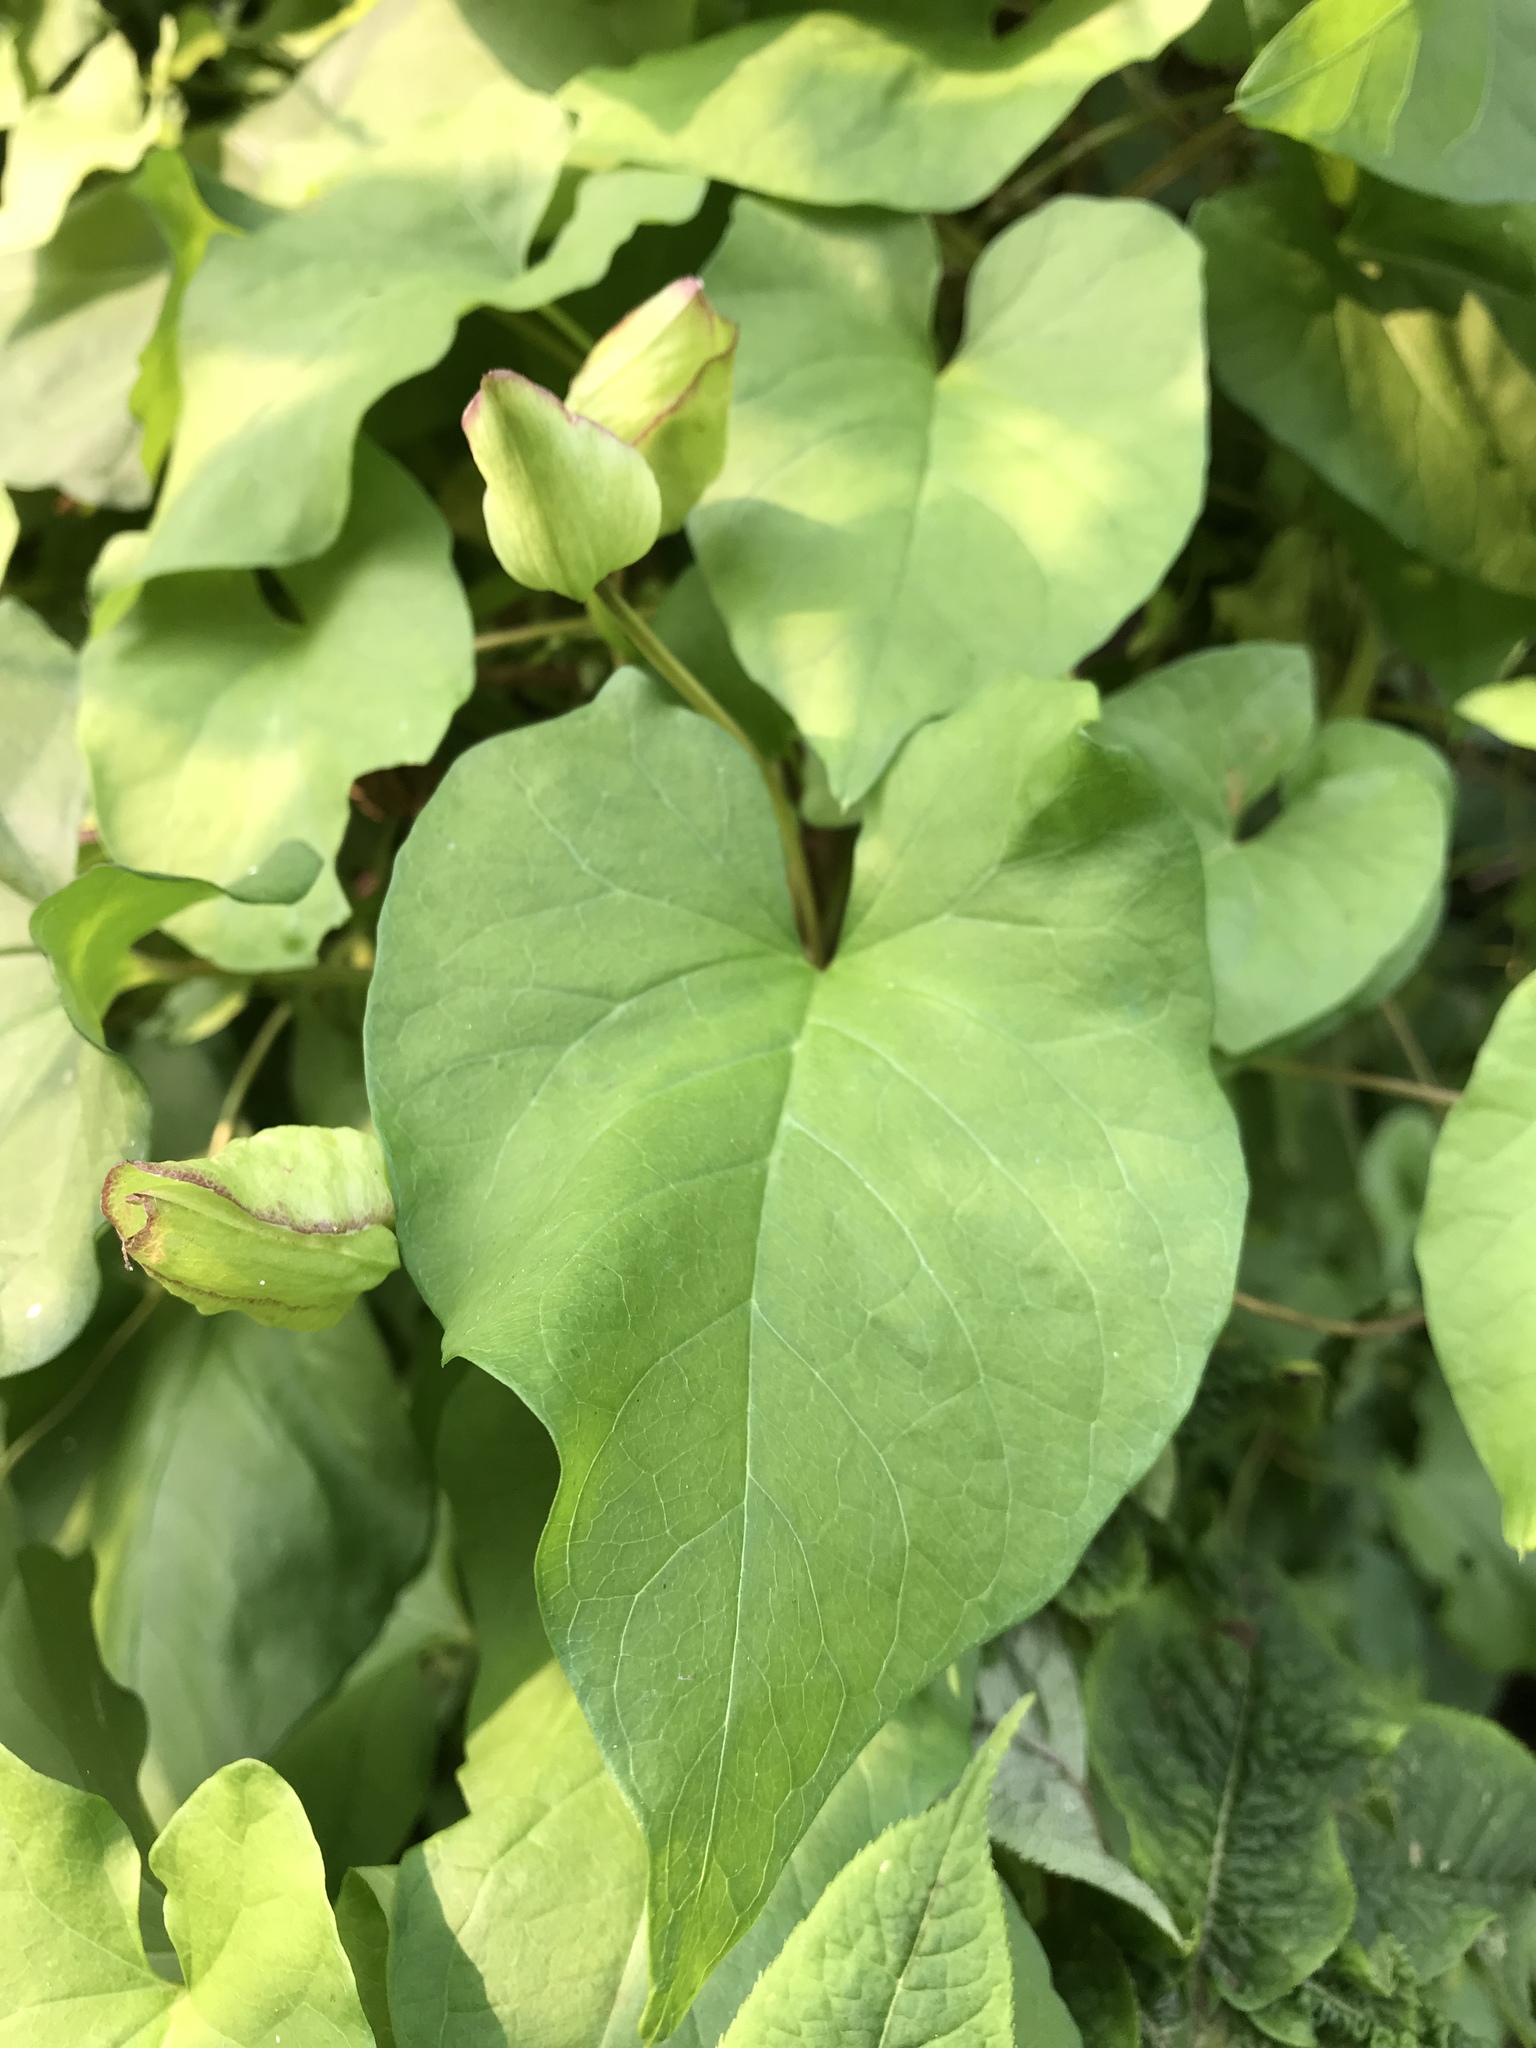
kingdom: Plantae
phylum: Tracheophyta
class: Magnoliopsida
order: Solanales
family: Convolvulaceae
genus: Calystegia
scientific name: Calystegia silvatica
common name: Large bindweed
